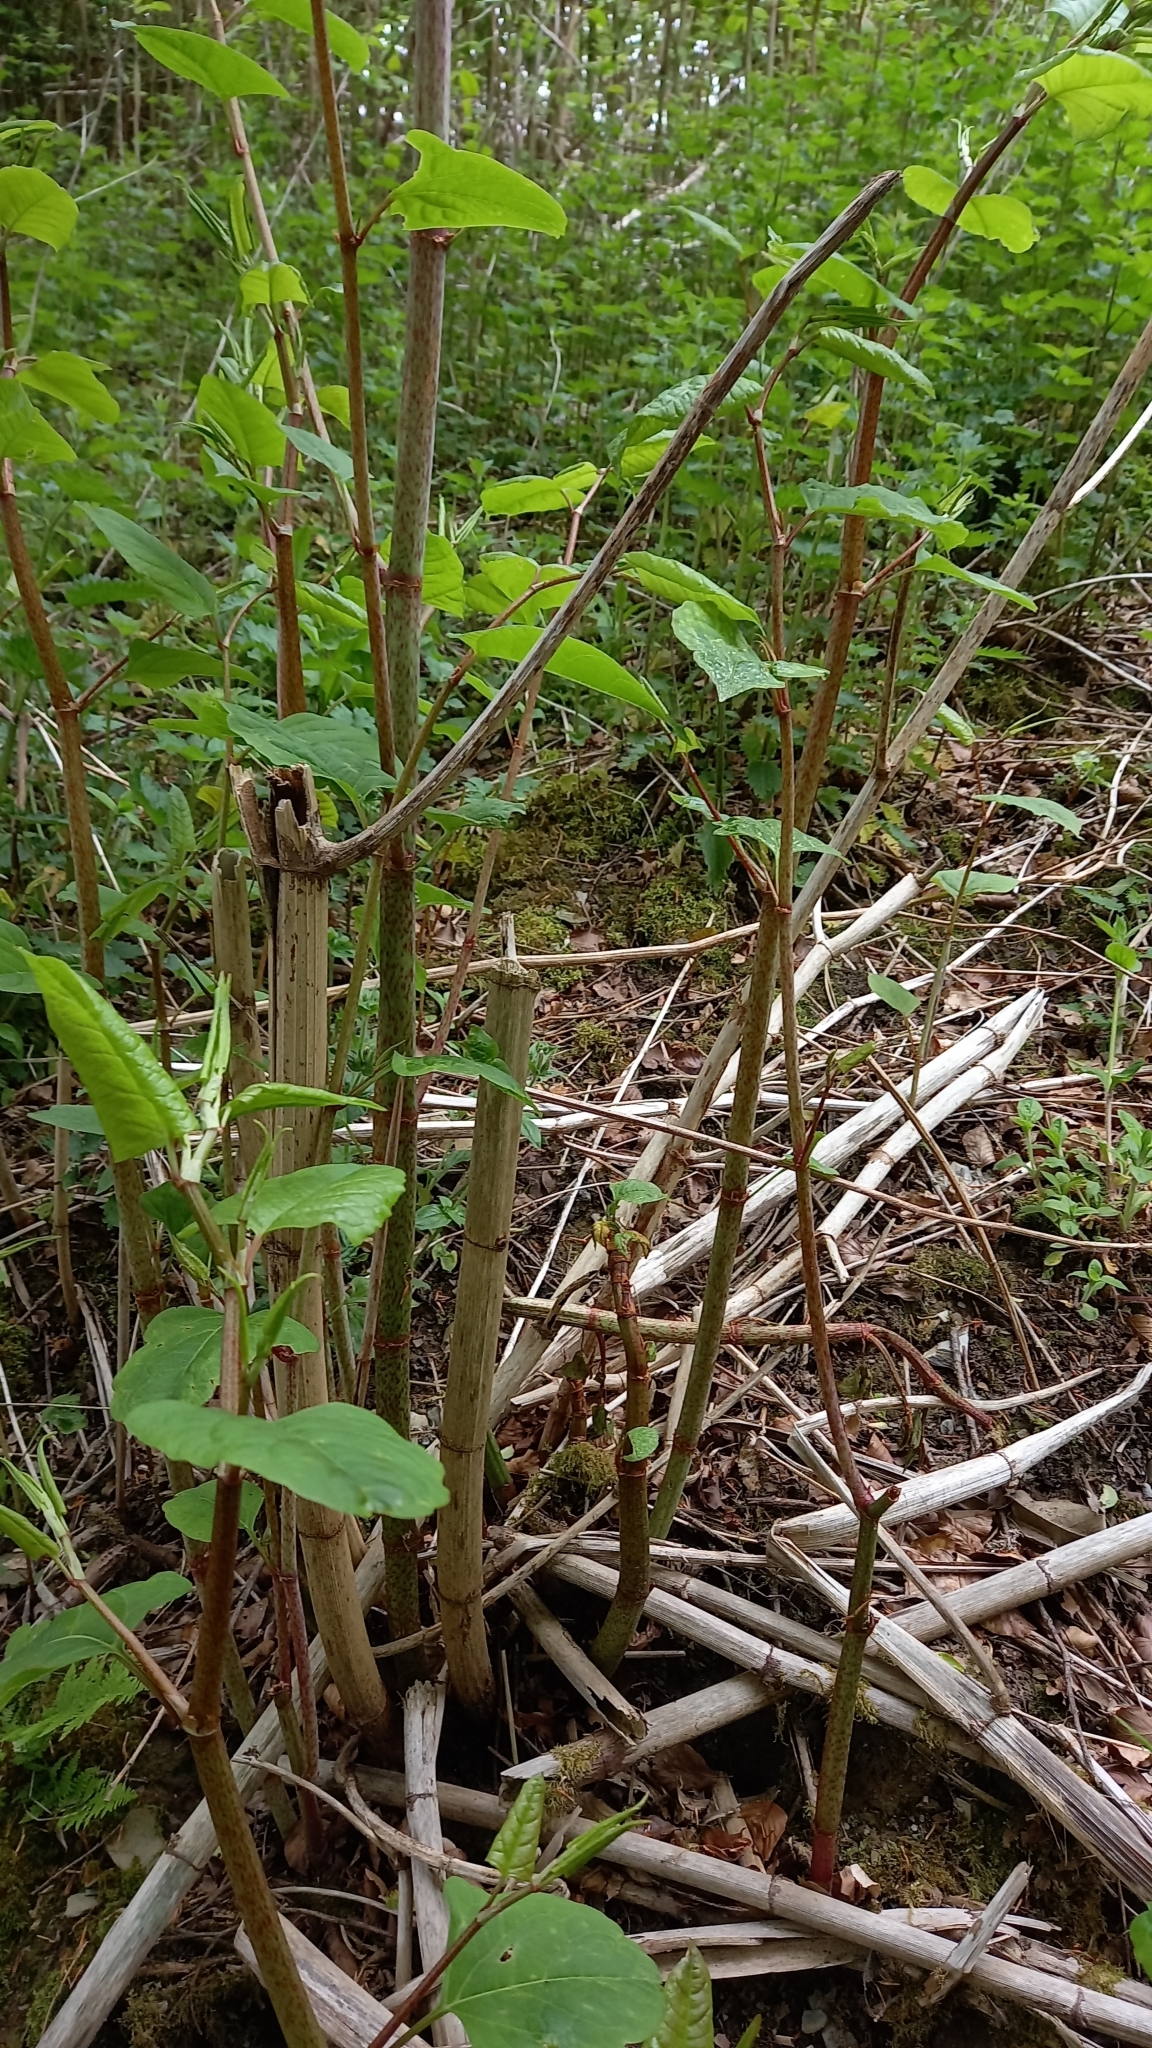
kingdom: Plantae
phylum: Tracheophyta
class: Magnoliopsida
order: Caryophyllales
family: Polygonaceae
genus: Reynoutria
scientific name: Reynoutria japonica
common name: Japanese knotweed
